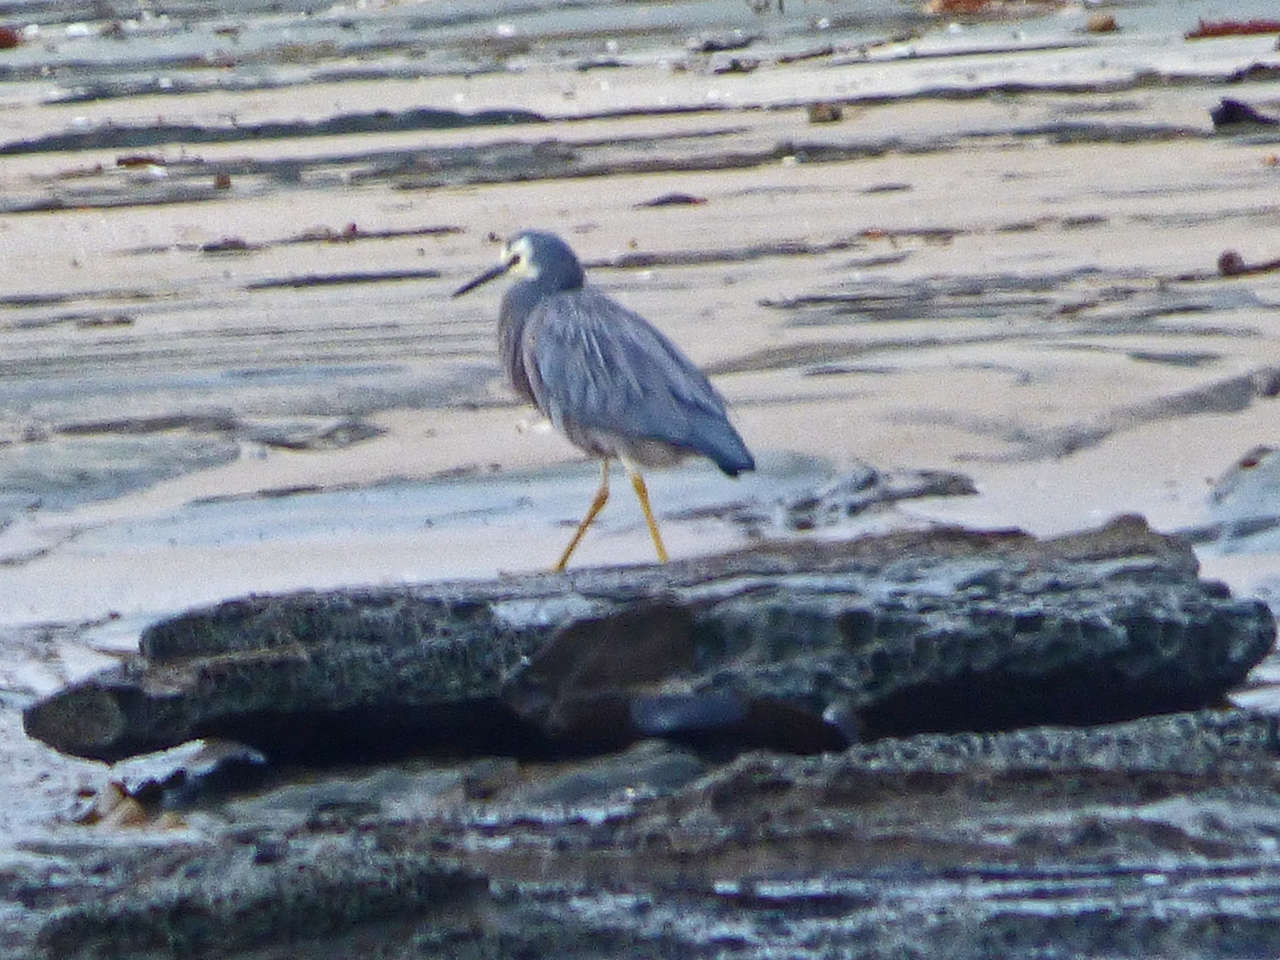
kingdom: Animalia
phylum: Chordata
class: Aves
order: Pelecaniformes
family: Ardeidae
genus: Egretta
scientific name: Egretta novaehollandiae
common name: White-faced heron
